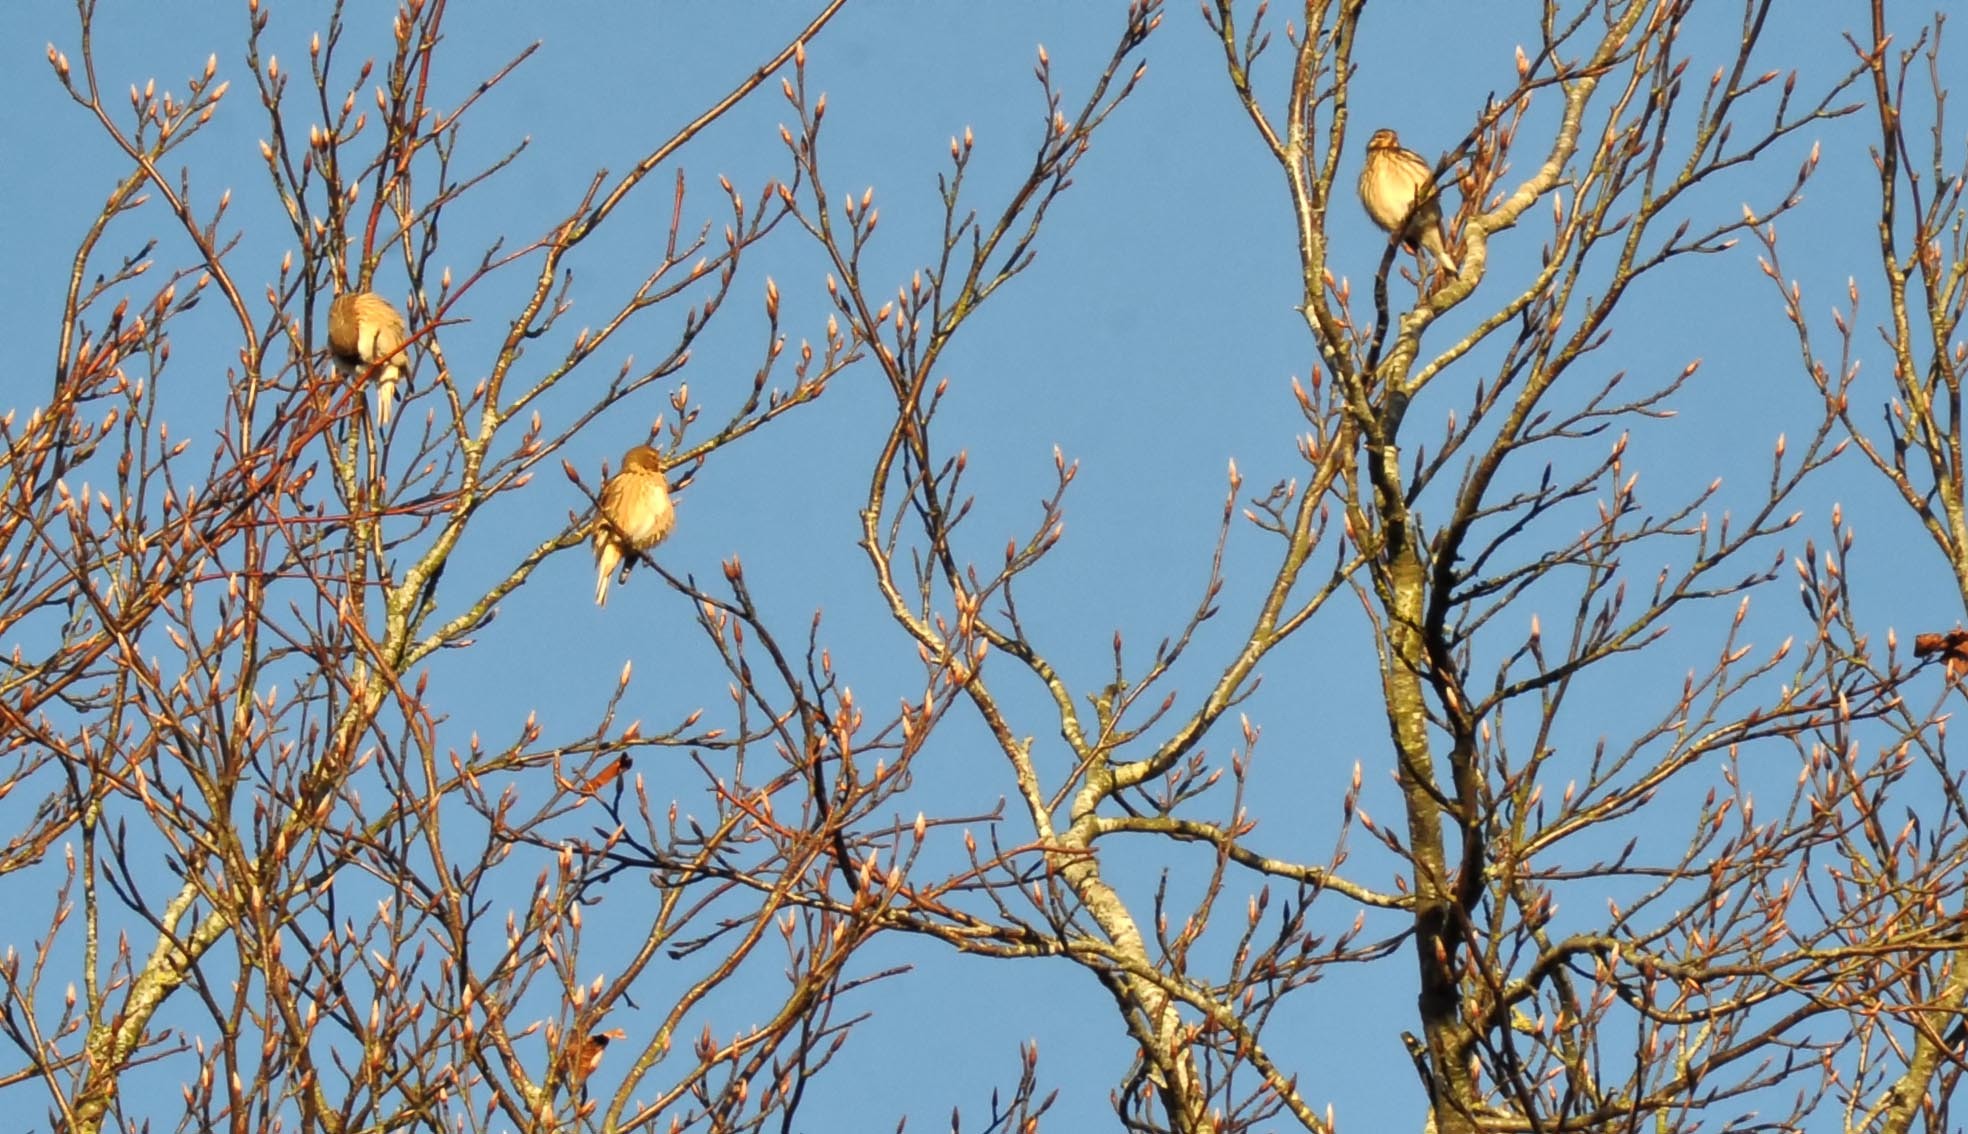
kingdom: Animalia
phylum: Chordata
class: Aves
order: Passeriformes
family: Fringillidae
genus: Linaria
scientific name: Linaria cannabina
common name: Common linnet
